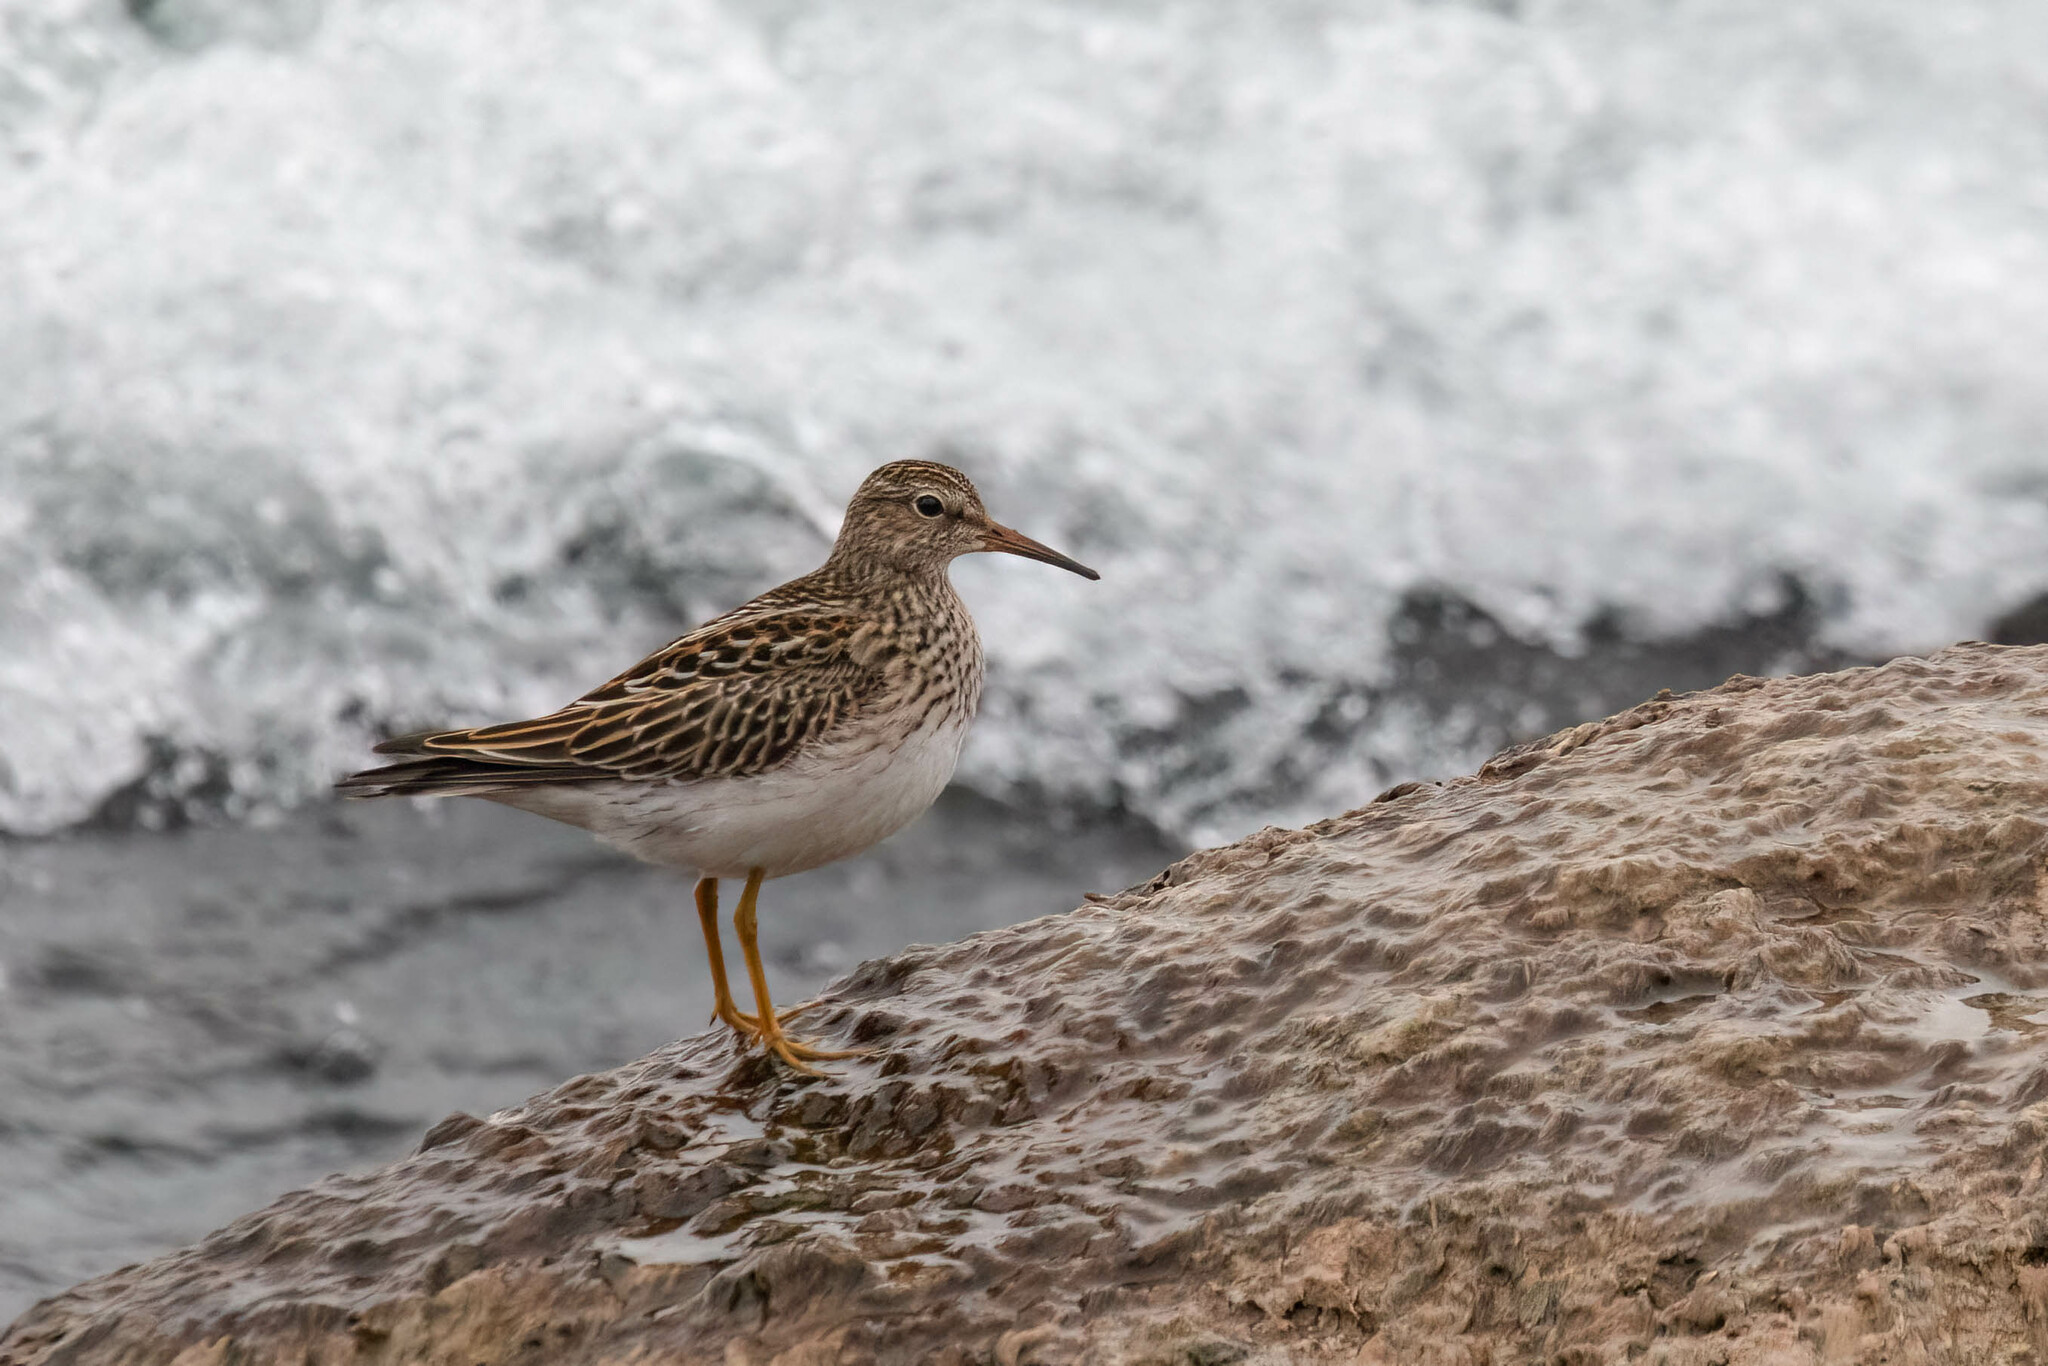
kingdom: Animalia
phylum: Chordata
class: Aves
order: Charadriiformes
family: Scolopacidae
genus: Calidris
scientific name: Calidris melanotos
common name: Pectoral sandpiper
